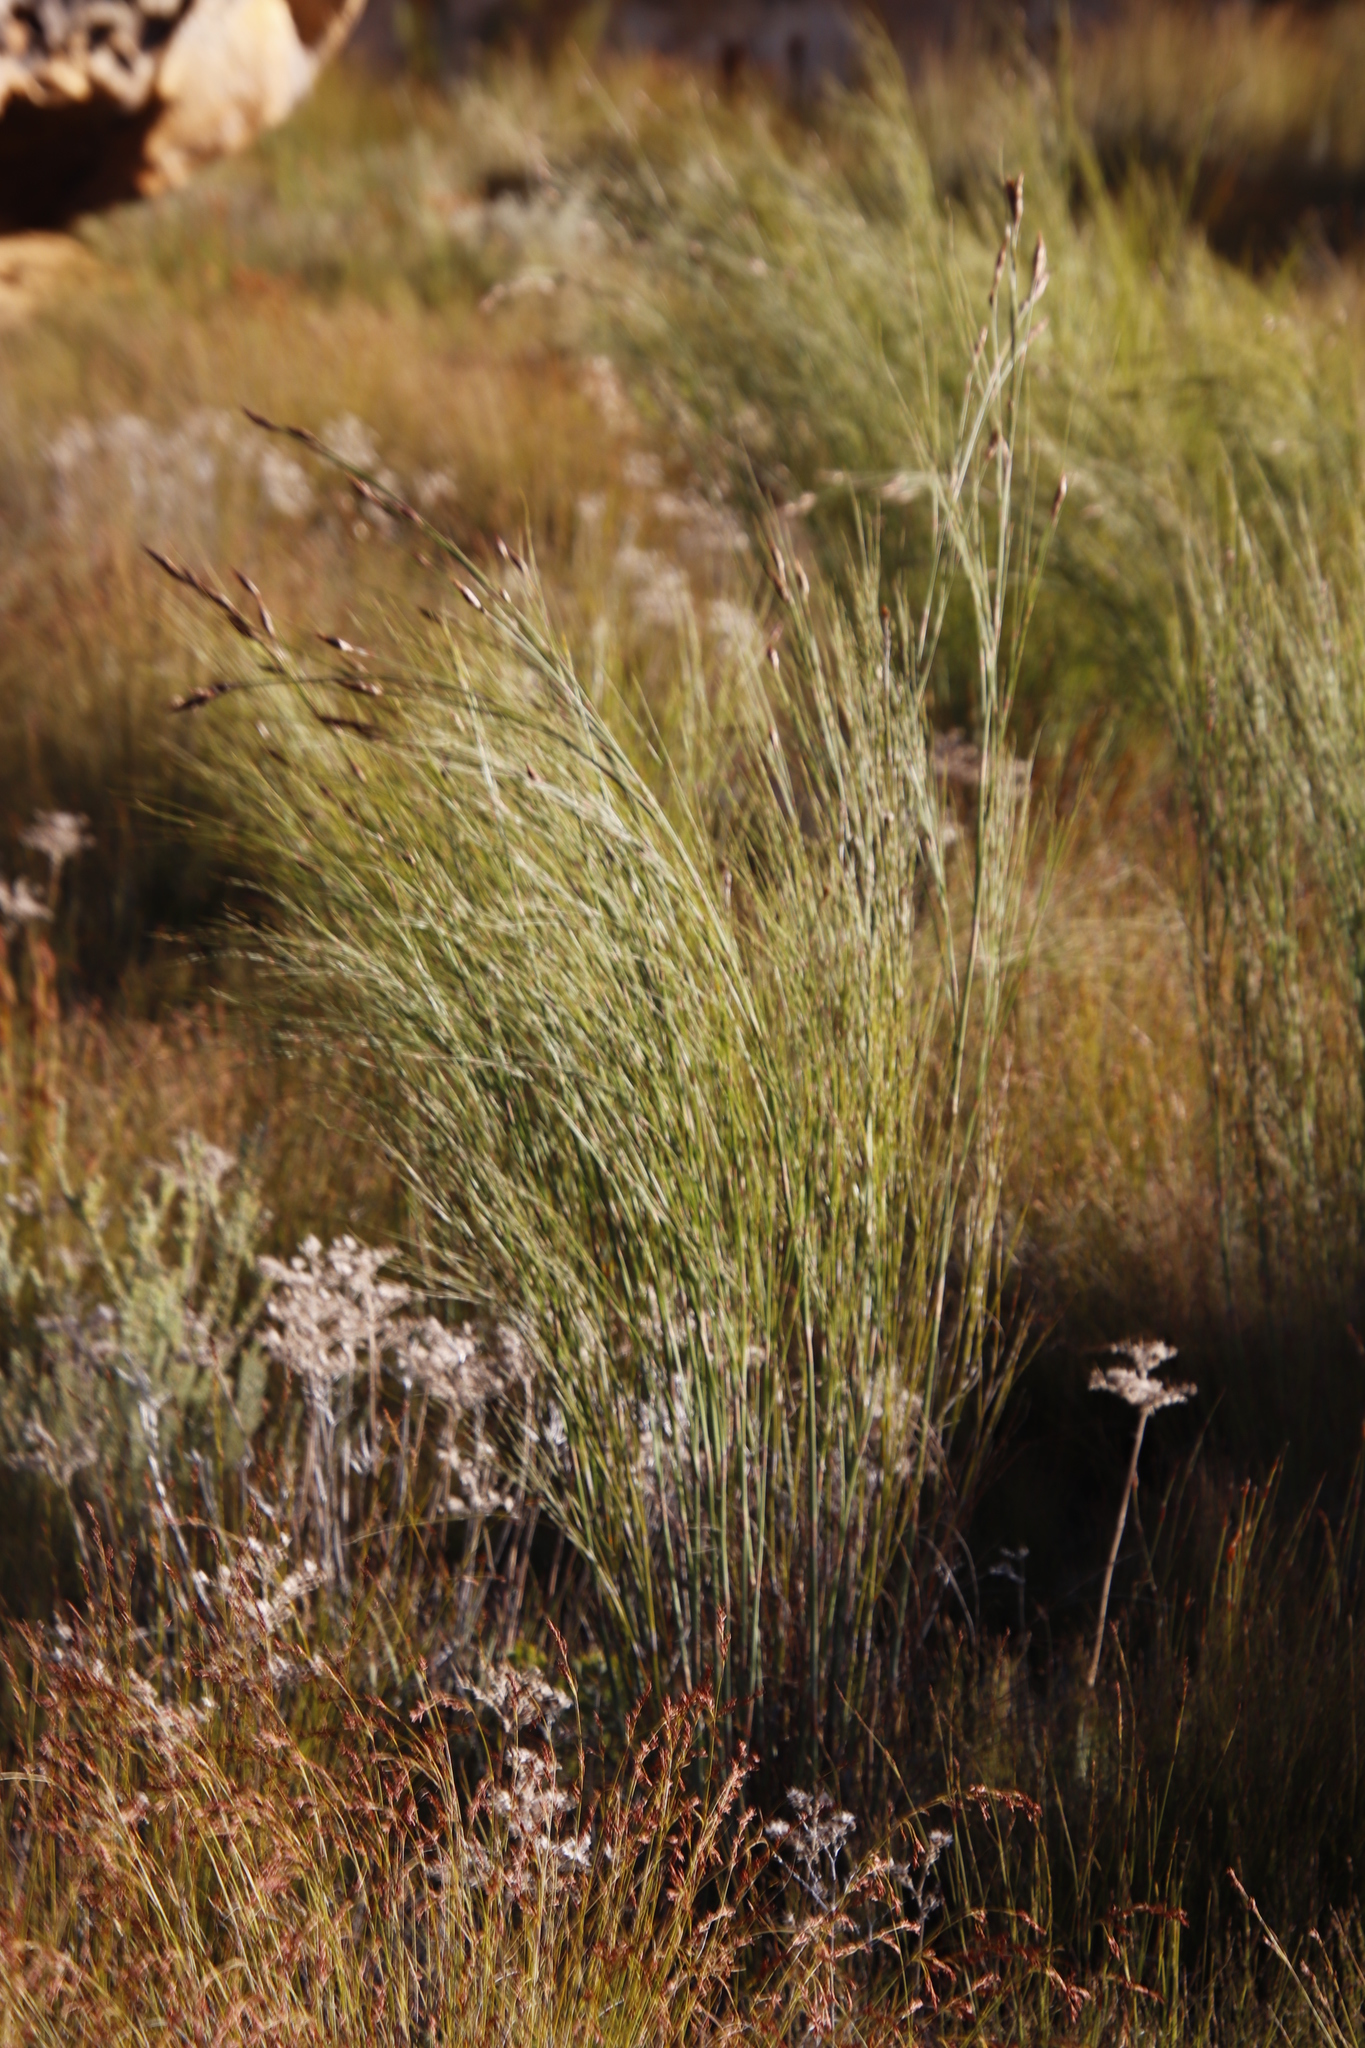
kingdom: Plantae
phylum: Tracheophyta
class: Liliopsida
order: Commelinales
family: Haemodoraceae
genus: Dilatris
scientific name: Dilatris ixioides
